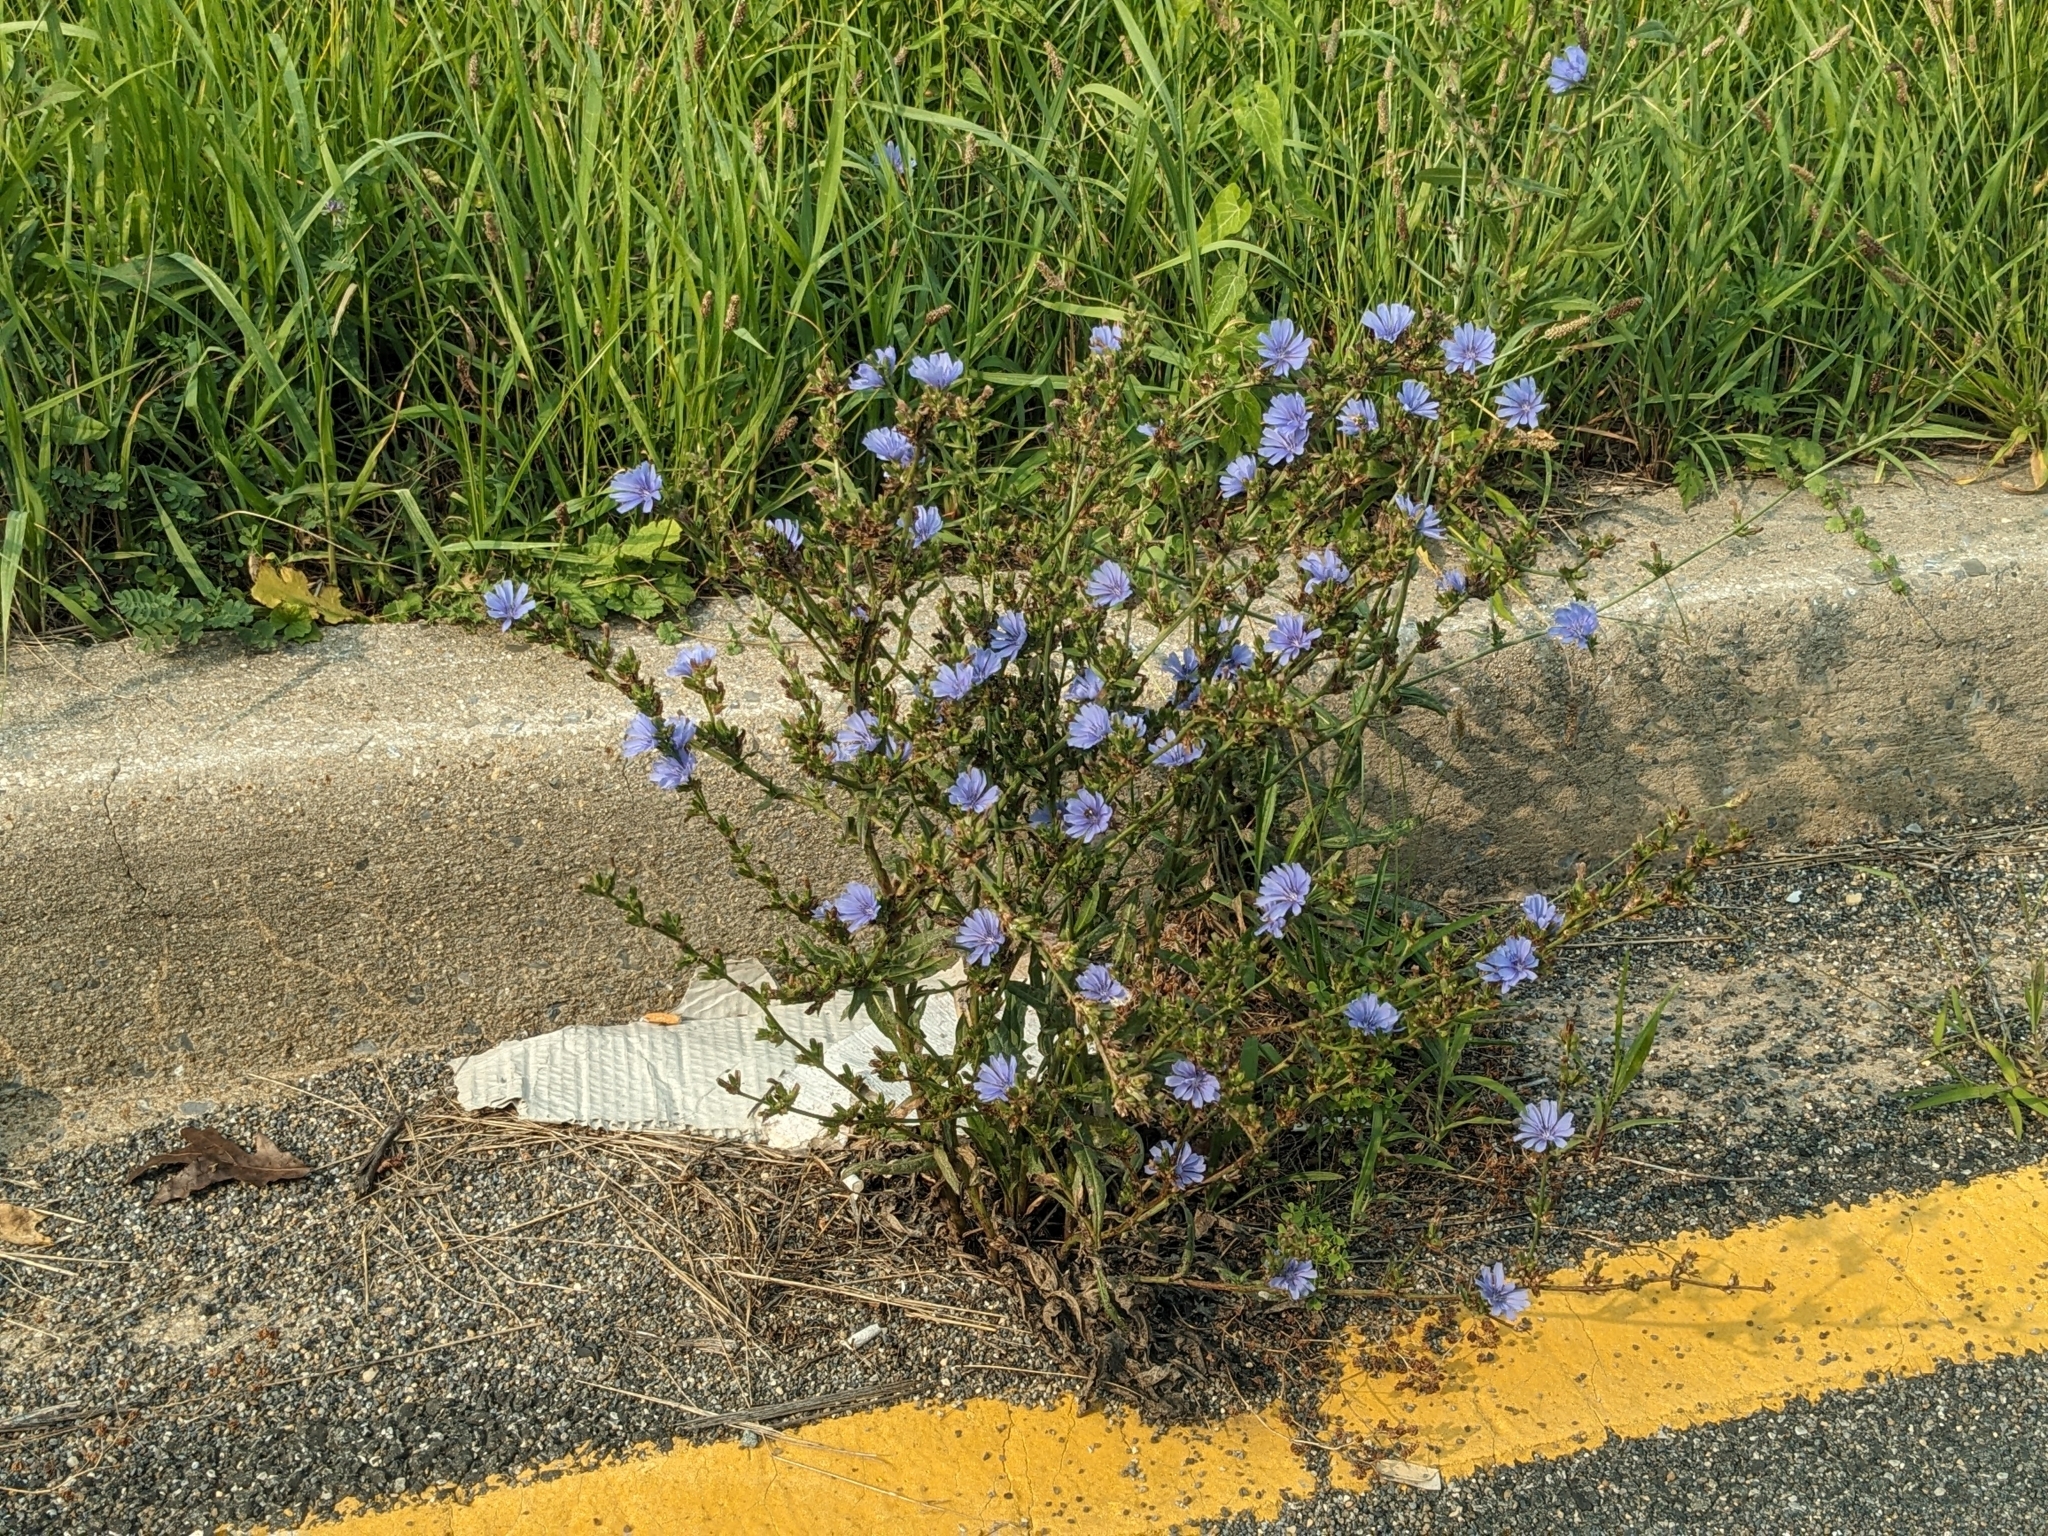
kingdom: Plantae
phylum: Tracheophyta
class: Magnoliopsida
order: Asterales
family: Asteraceae
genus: Cichorium
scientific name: Cichorium intybus
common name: Chicory
